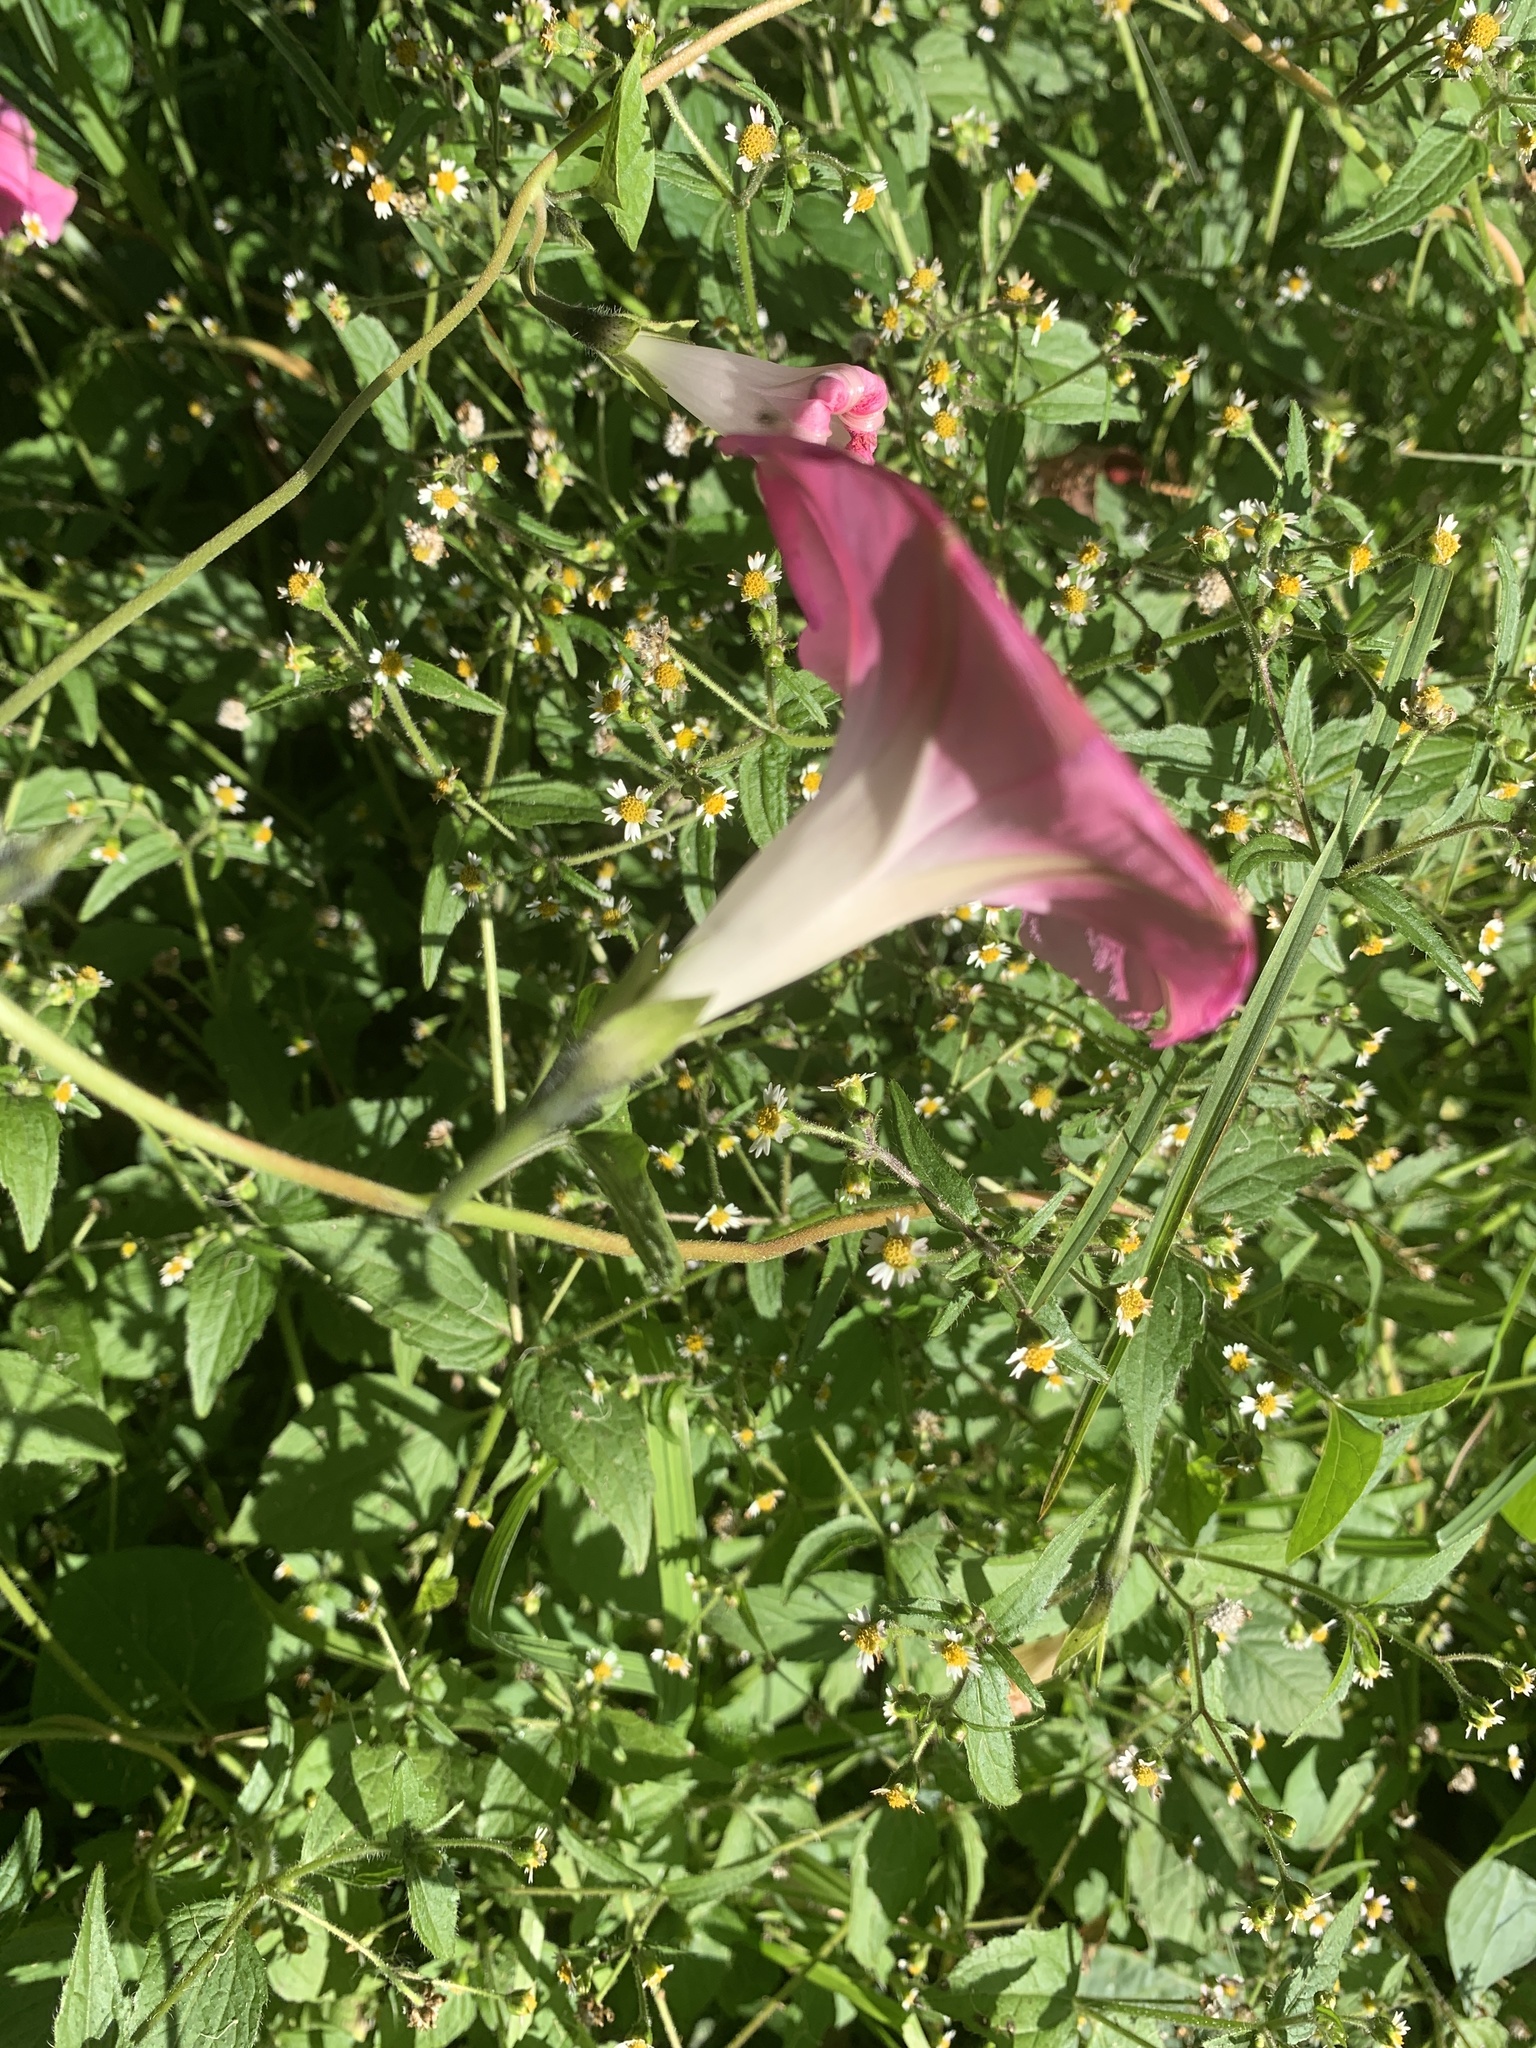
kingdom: Plantae
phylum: Tracheophyta
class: Magnoliopsida
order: Solanales
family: Convolvulaceae
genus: Ipomoea
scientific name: Ipomoea purpurea
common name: Common morning-glory
